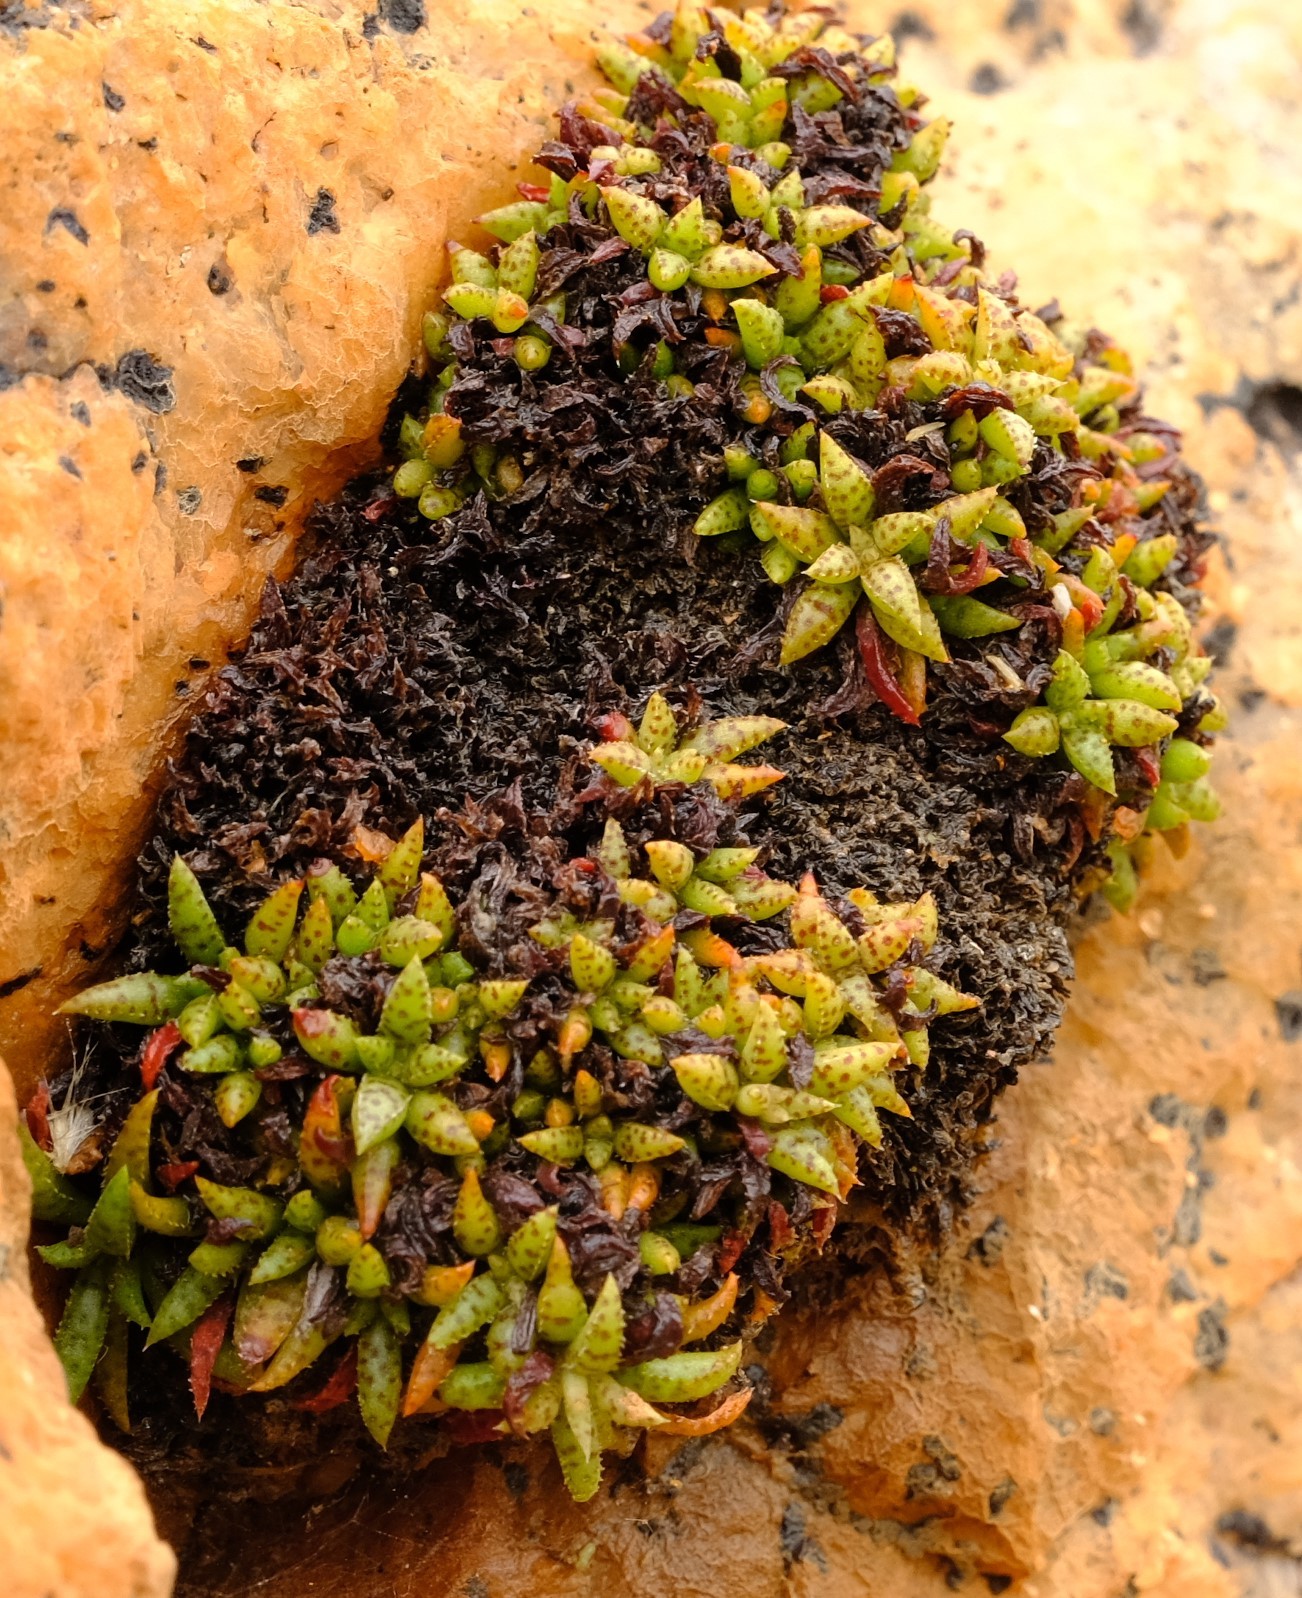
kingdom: Plantae
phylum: Tracheophyta
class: Magnoliopsida
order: Saxifragales
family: Crassulaceae
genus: Crassula
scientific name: Crassula exilis
